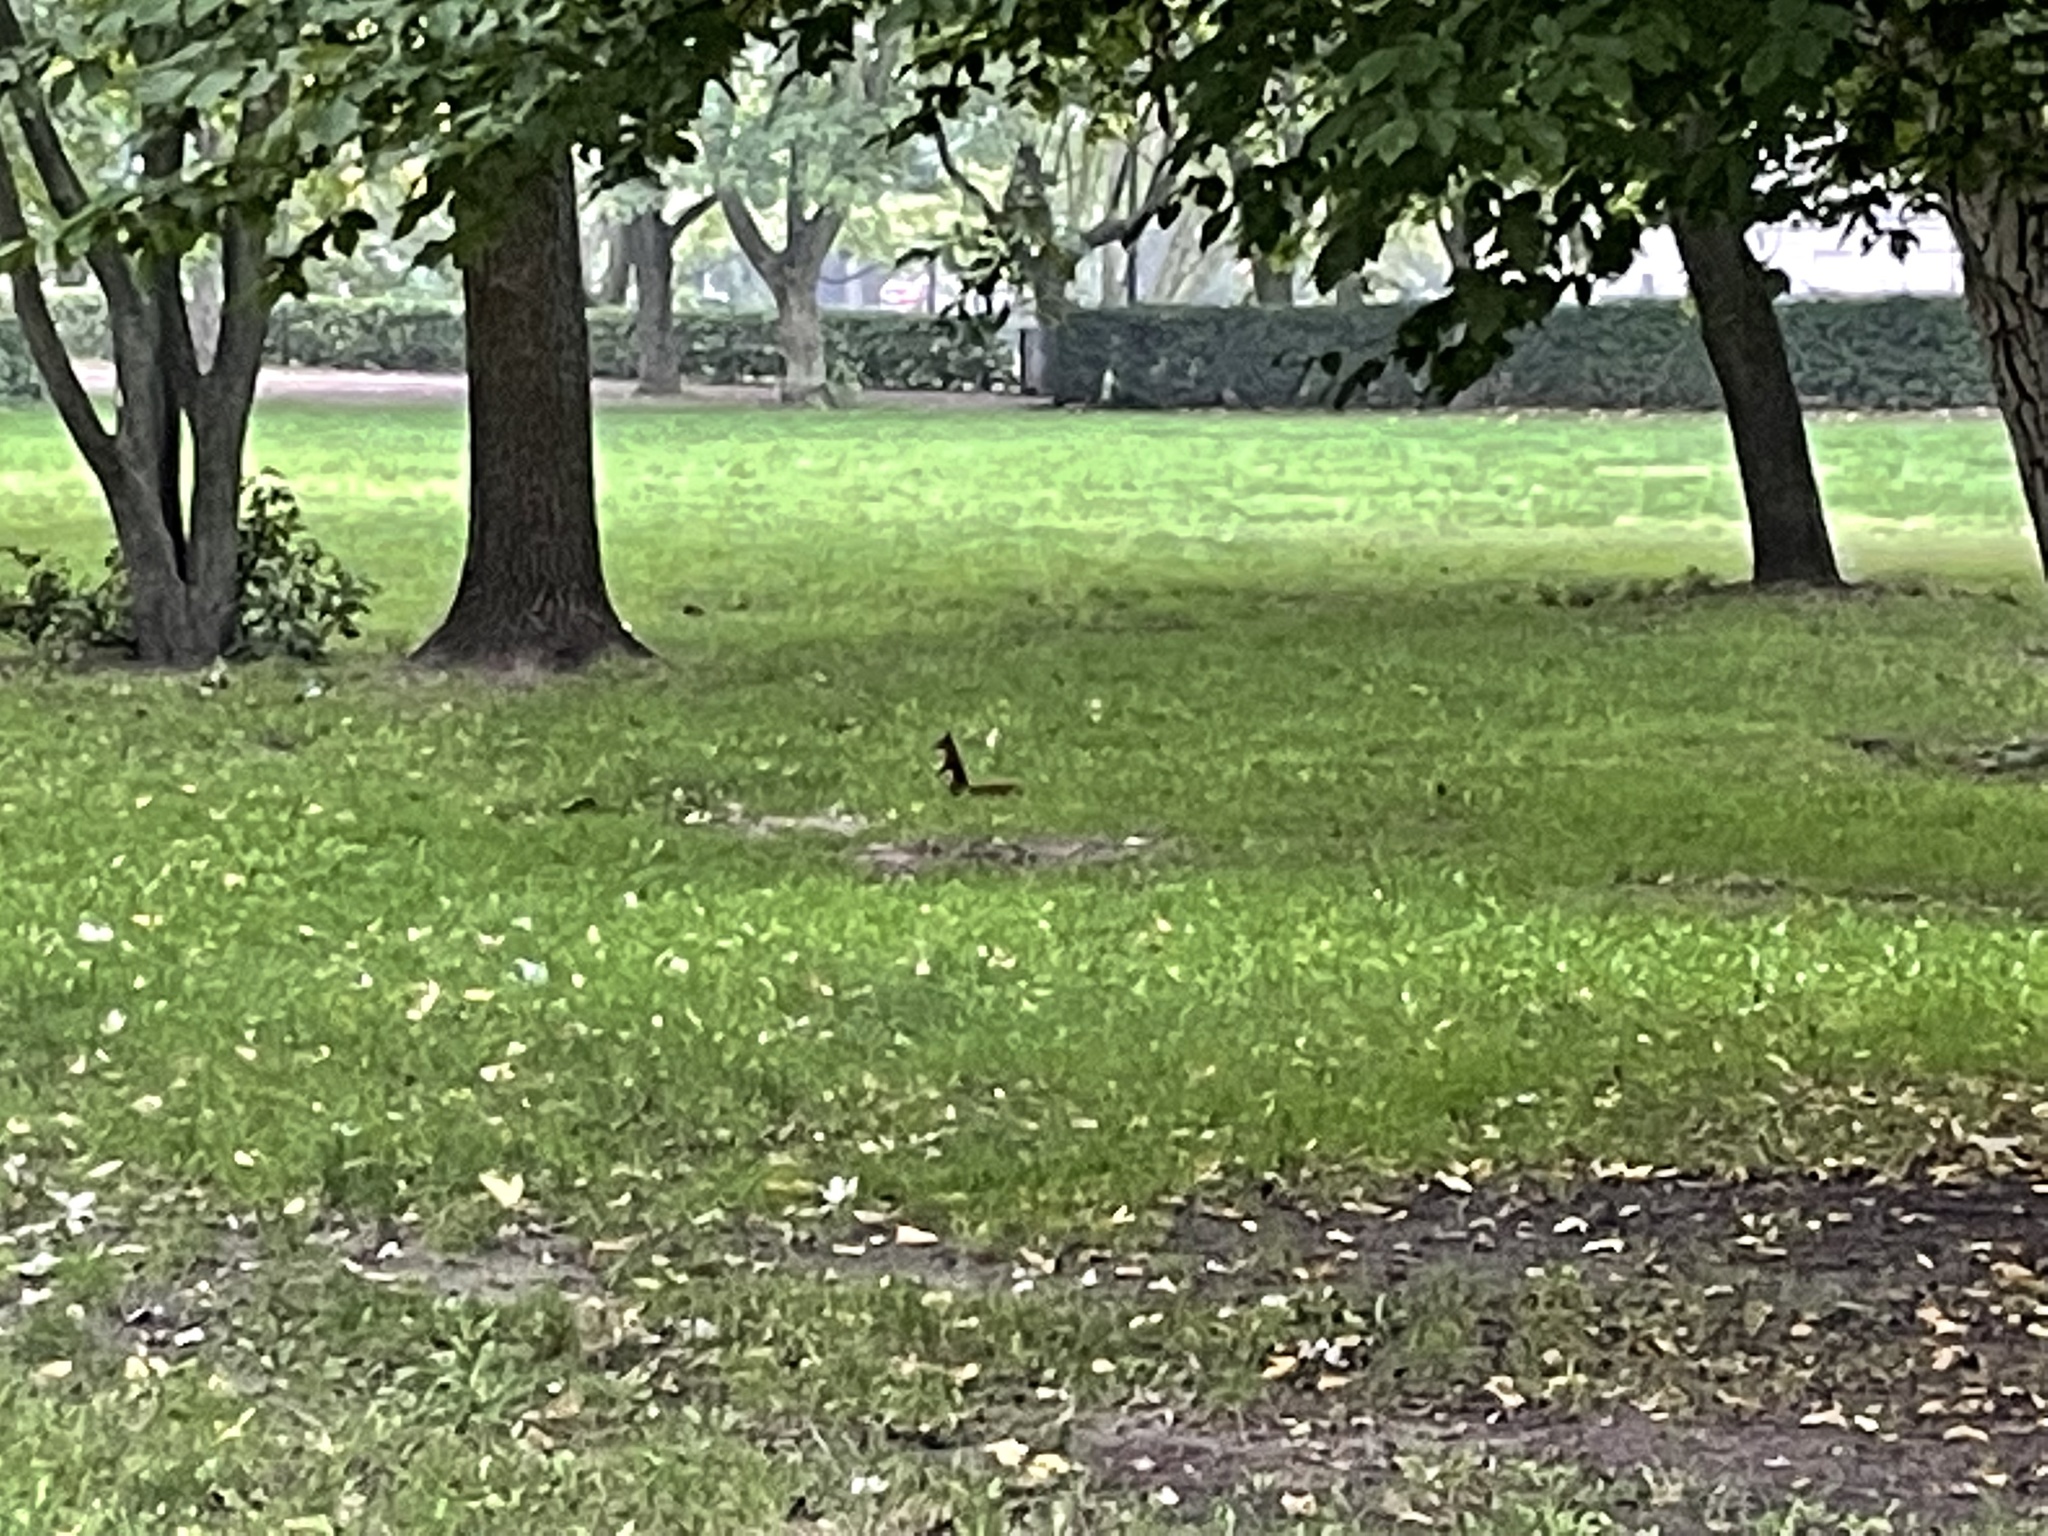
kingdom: Animalia
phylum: Chordata
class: Mammalia
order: Rodentia
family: Sciuridae
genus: Sciurus
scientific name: Sciurus vulgaris
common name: Eurasian red squirrel
